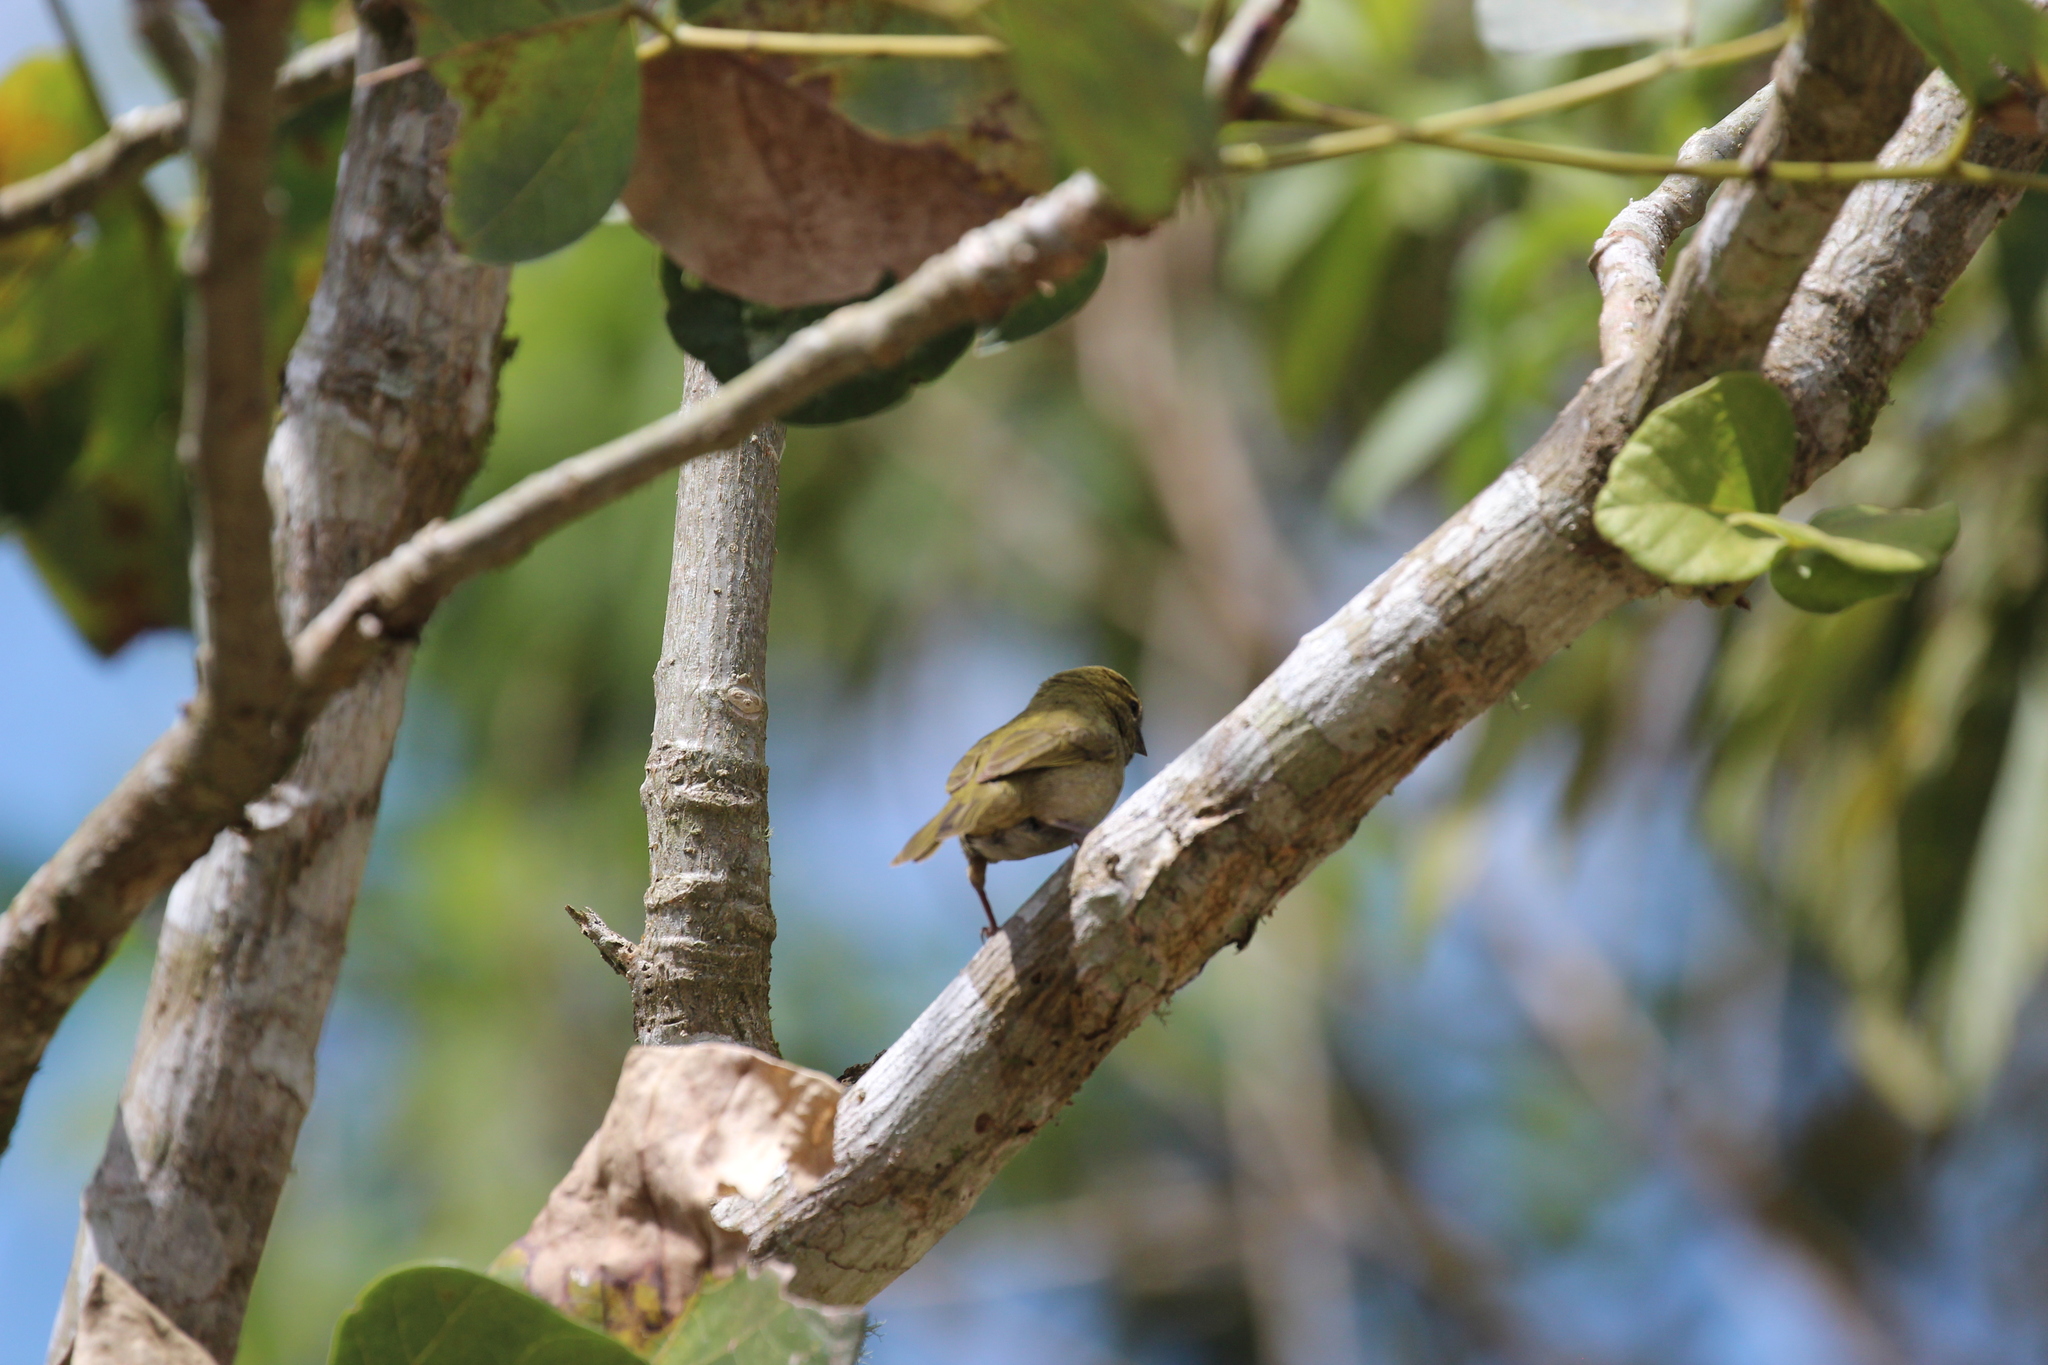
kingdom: Animalia
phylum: Chordata
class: Aves
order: Passeriformes
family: Thraupidae
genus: Tiaris
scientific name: Tiaris olivaceus
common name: Yellow-faced grassquit
